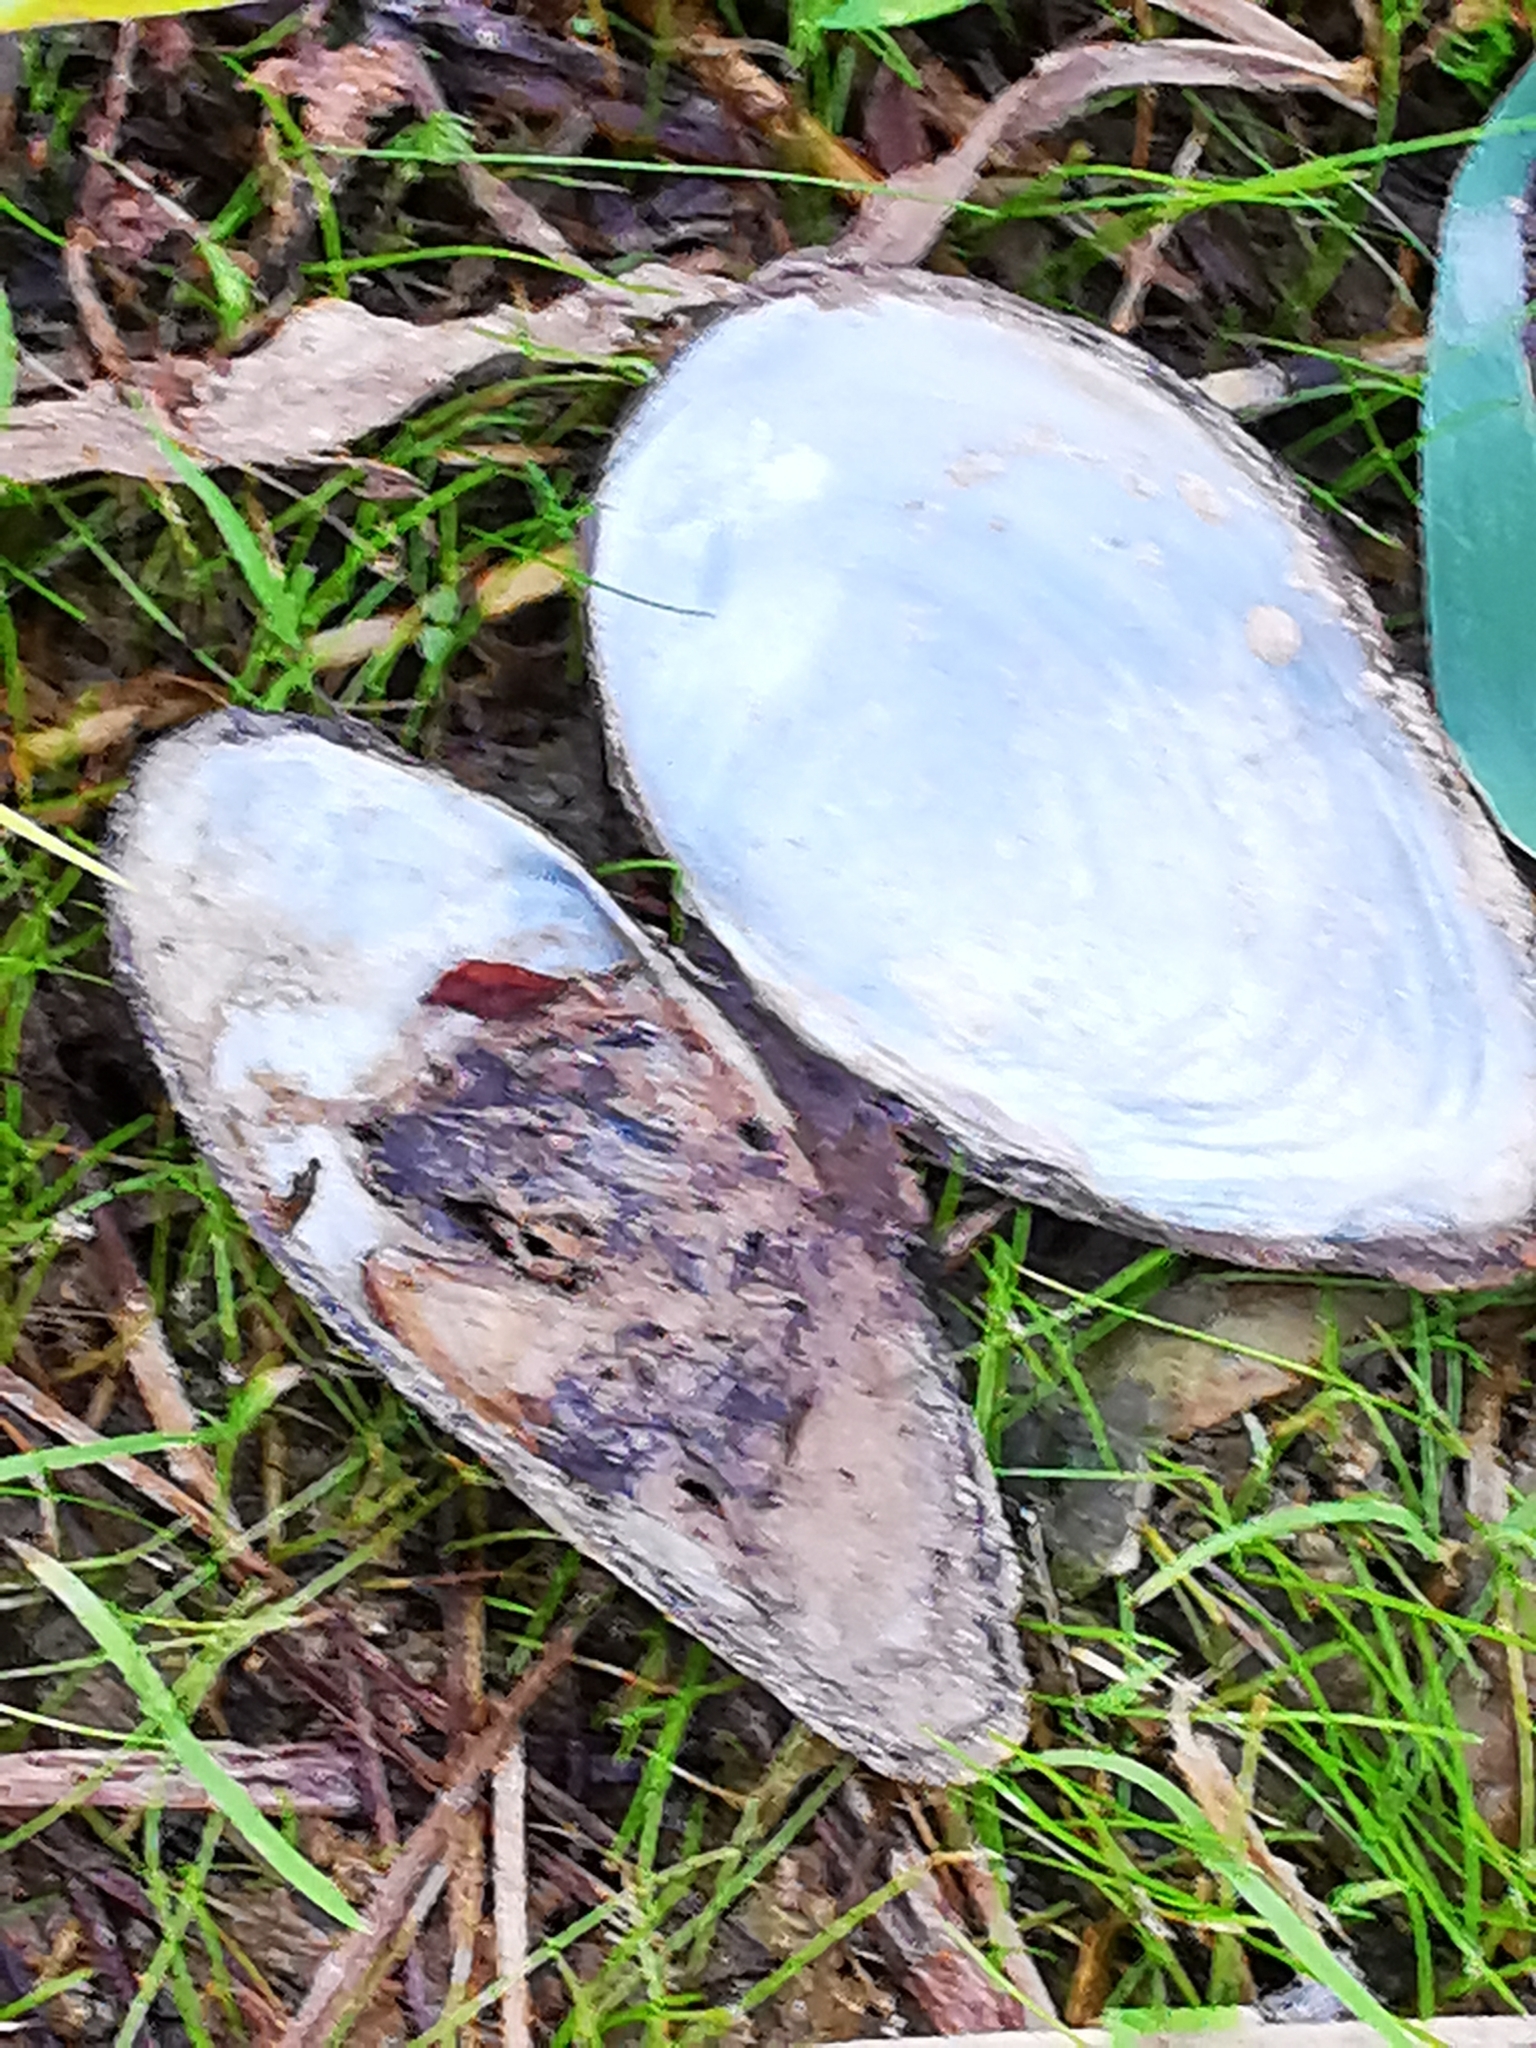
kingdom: Animalia
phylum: Mollusca
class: Bivalvia
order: Unionida
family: Unionidae
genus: Anodonta
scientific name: Anodonta anatina
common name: Duck mussel
